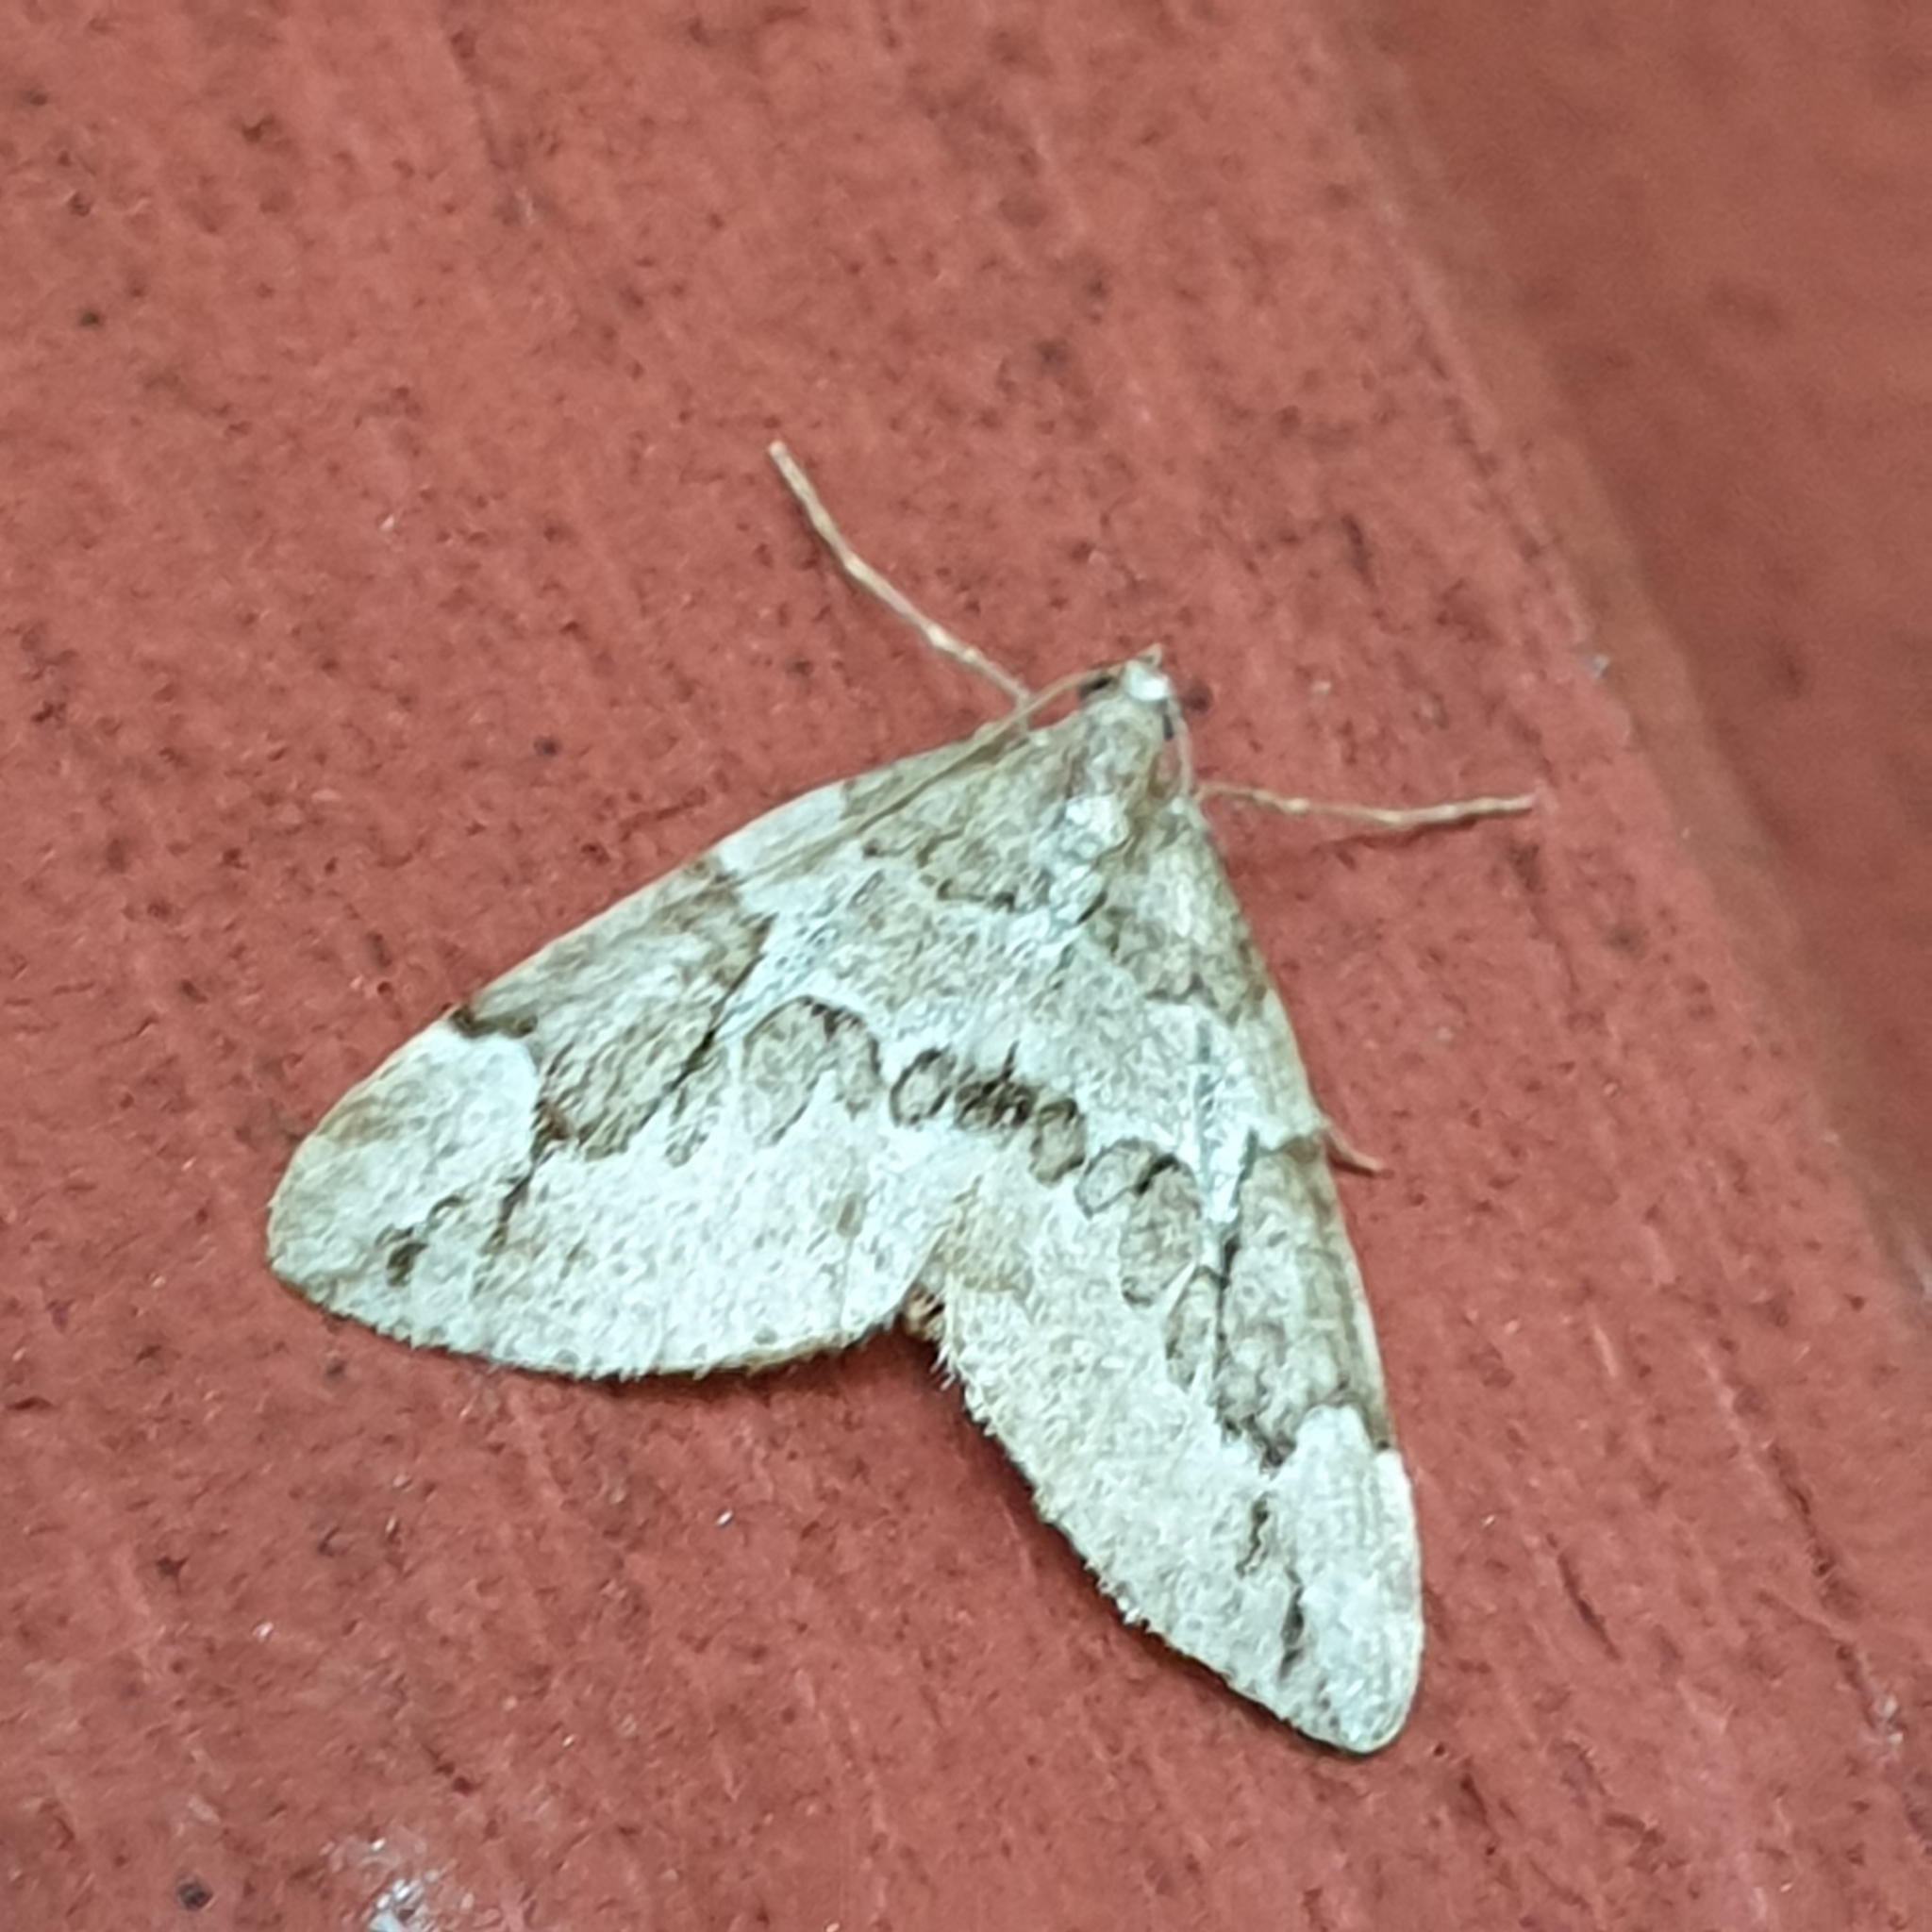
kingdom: Animalia
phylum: Arthropoda
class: Insecta
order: Lepidoptera
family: Geometridae
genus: Thera
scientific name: Thera juniperata
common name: Juniper carpet
